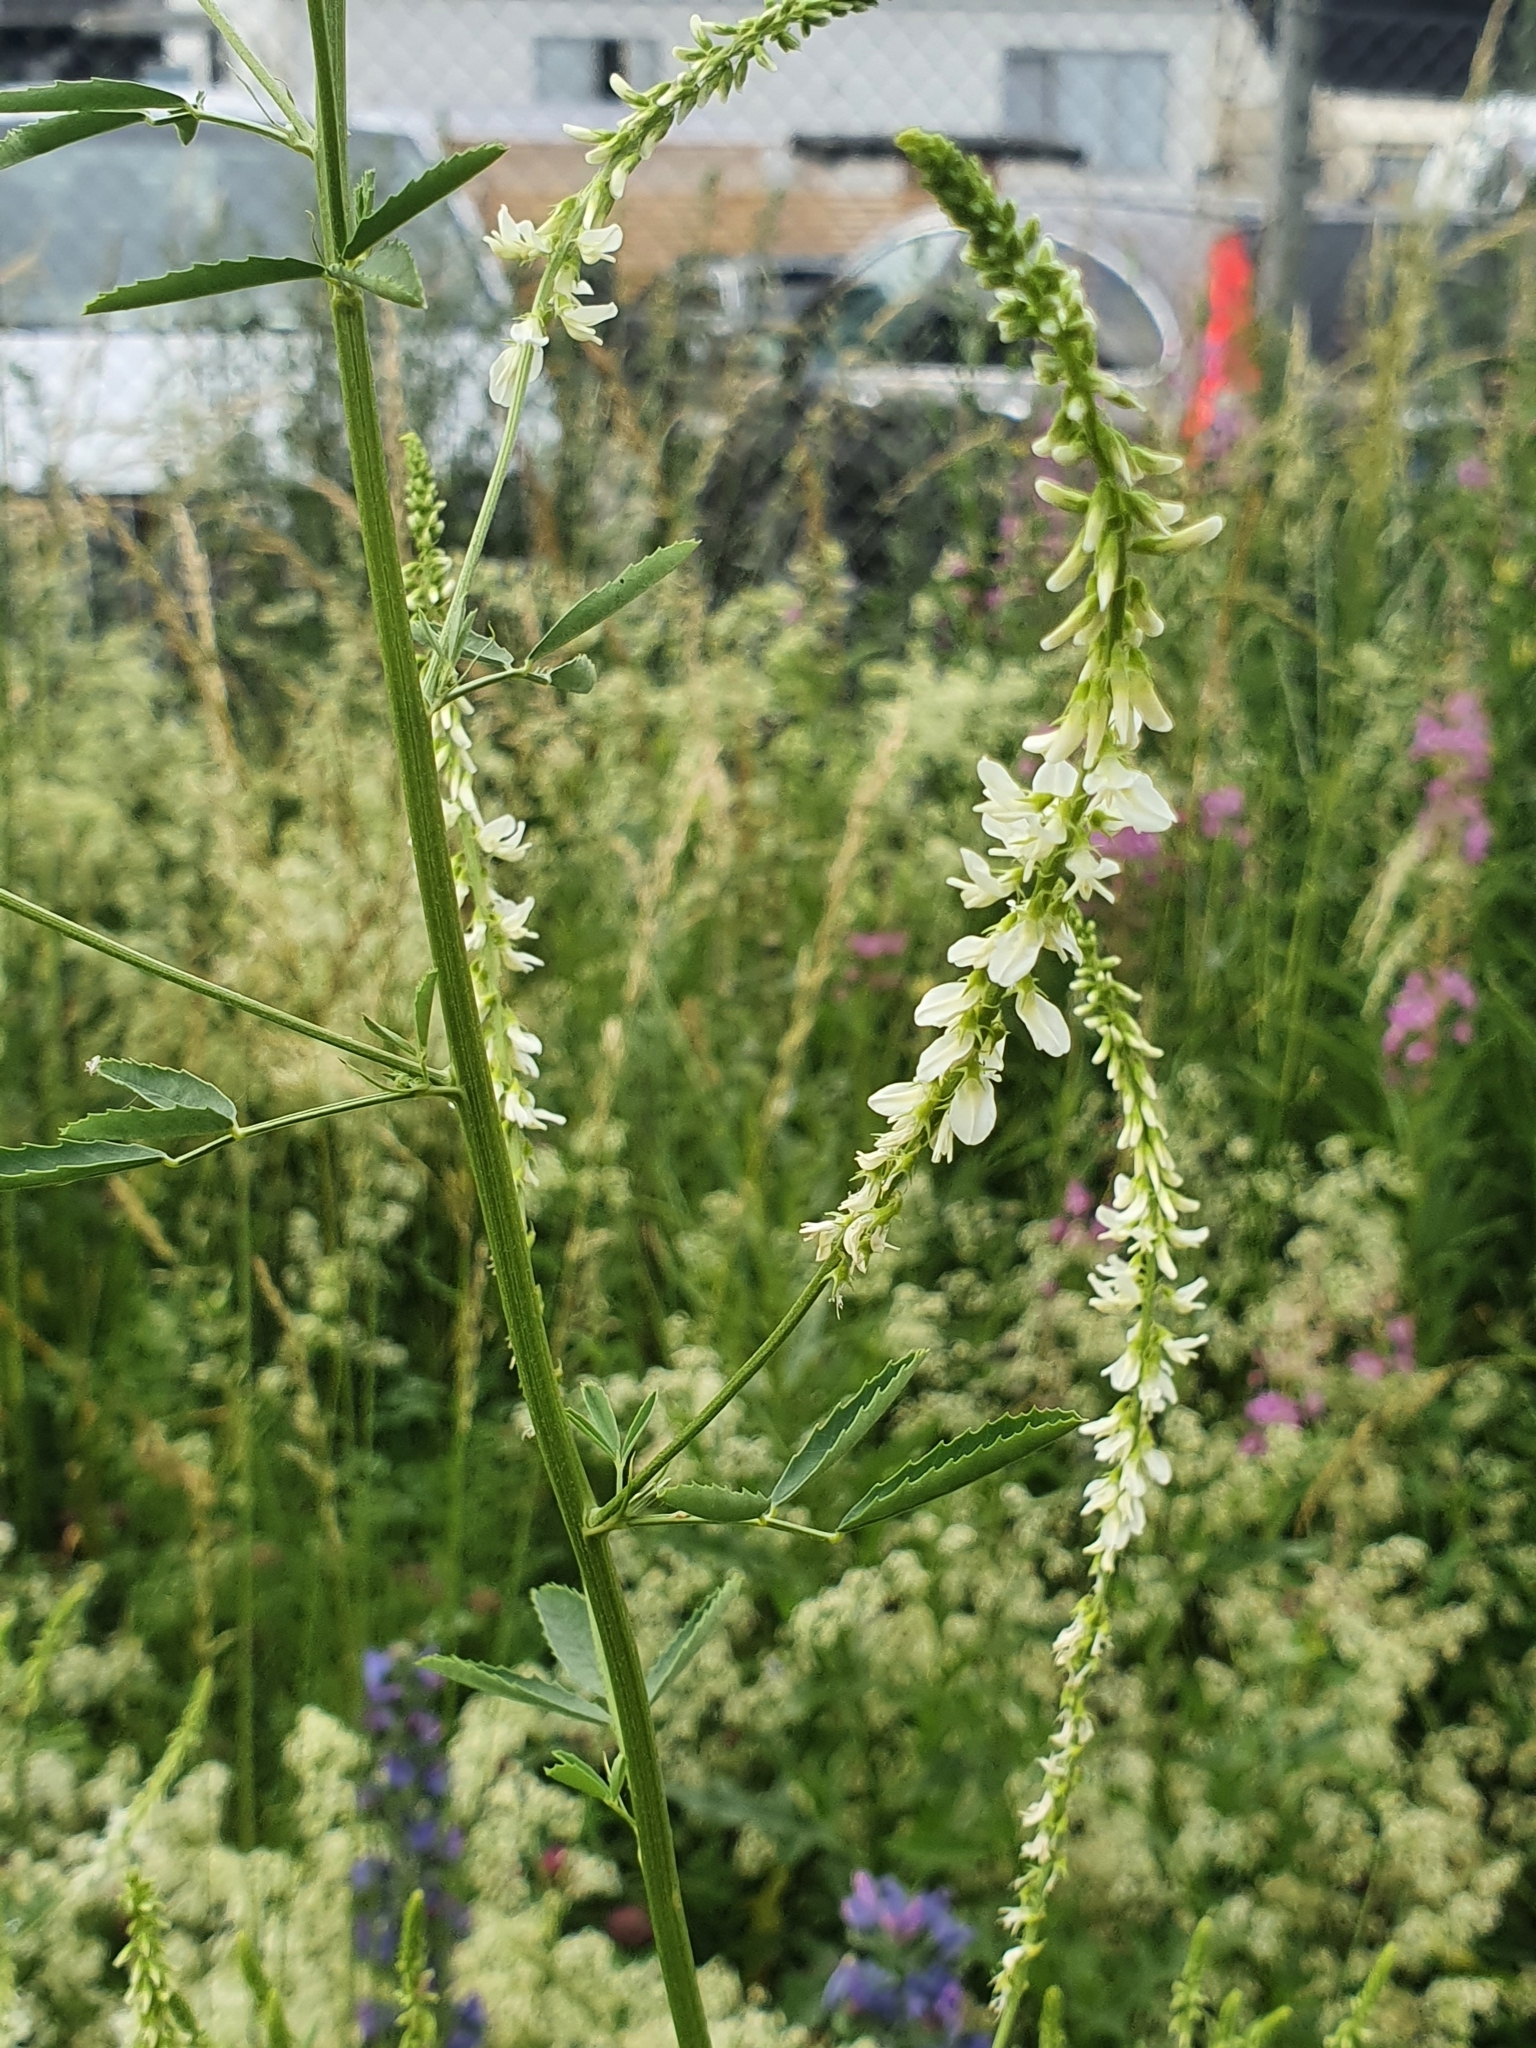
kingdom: Plantae
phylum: Tracheophyta
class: Magnoliopsida
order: Fabales
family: Fabaceae
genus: Melilotus
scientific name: Melilotus albus
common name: White melilot
